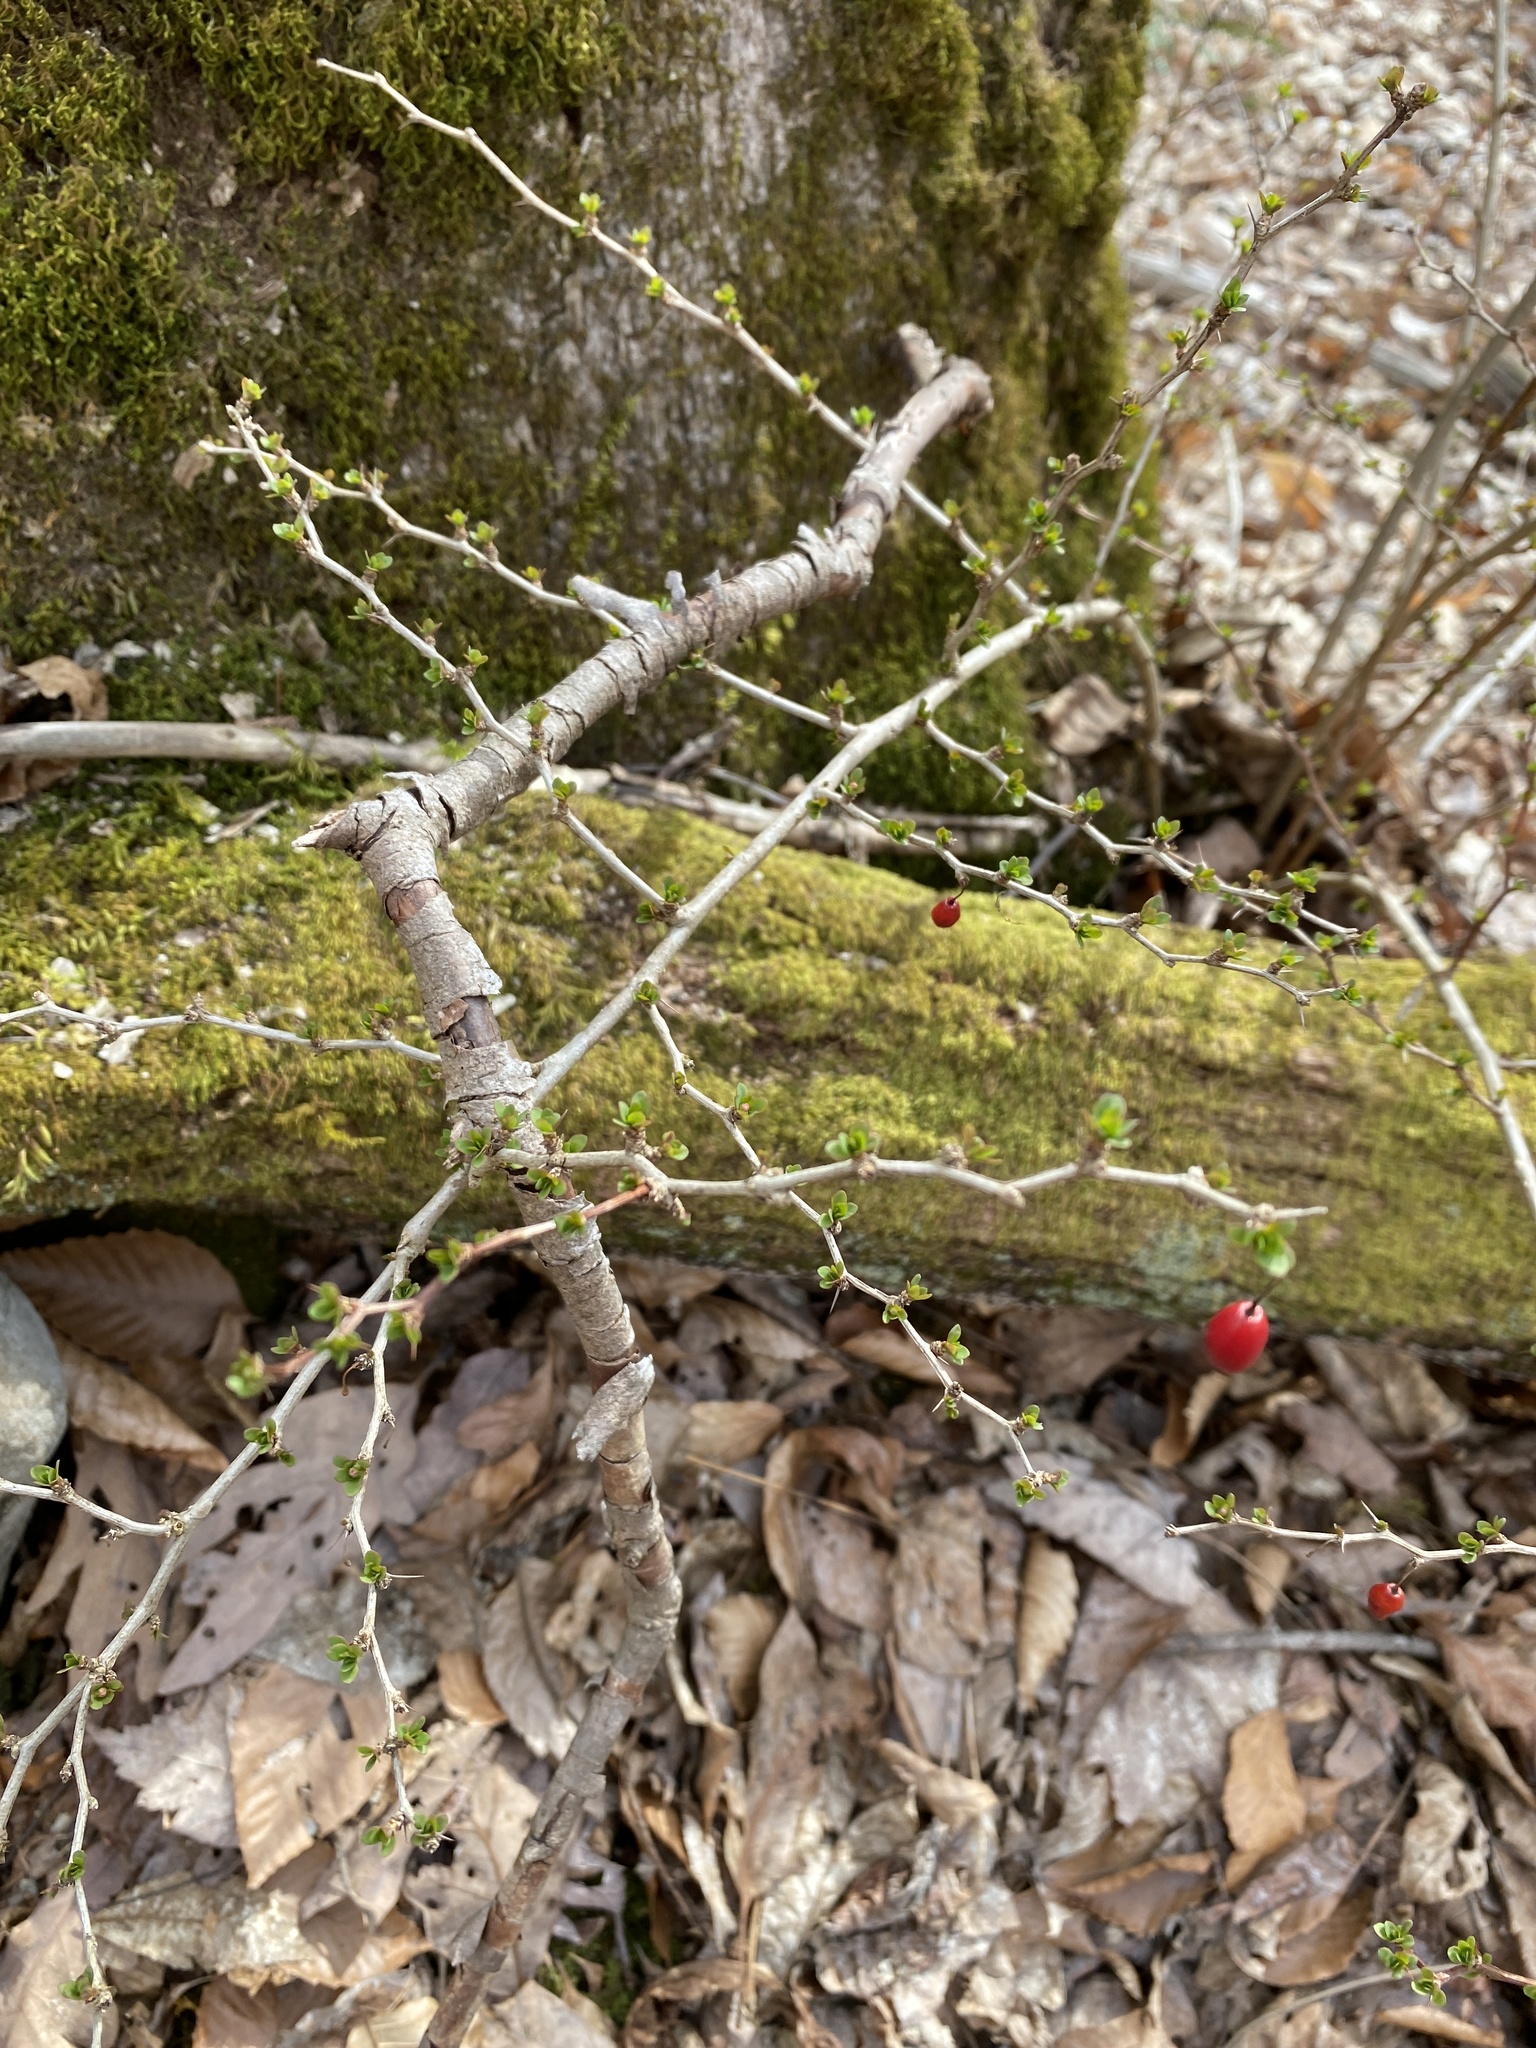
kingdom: Plantae
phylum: Tracheophyta
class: Magnoliopsida
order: Ranunculales
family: Berberidaceae
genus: Berberis
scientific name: Berberis thunbergii
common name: Japanese barberry
